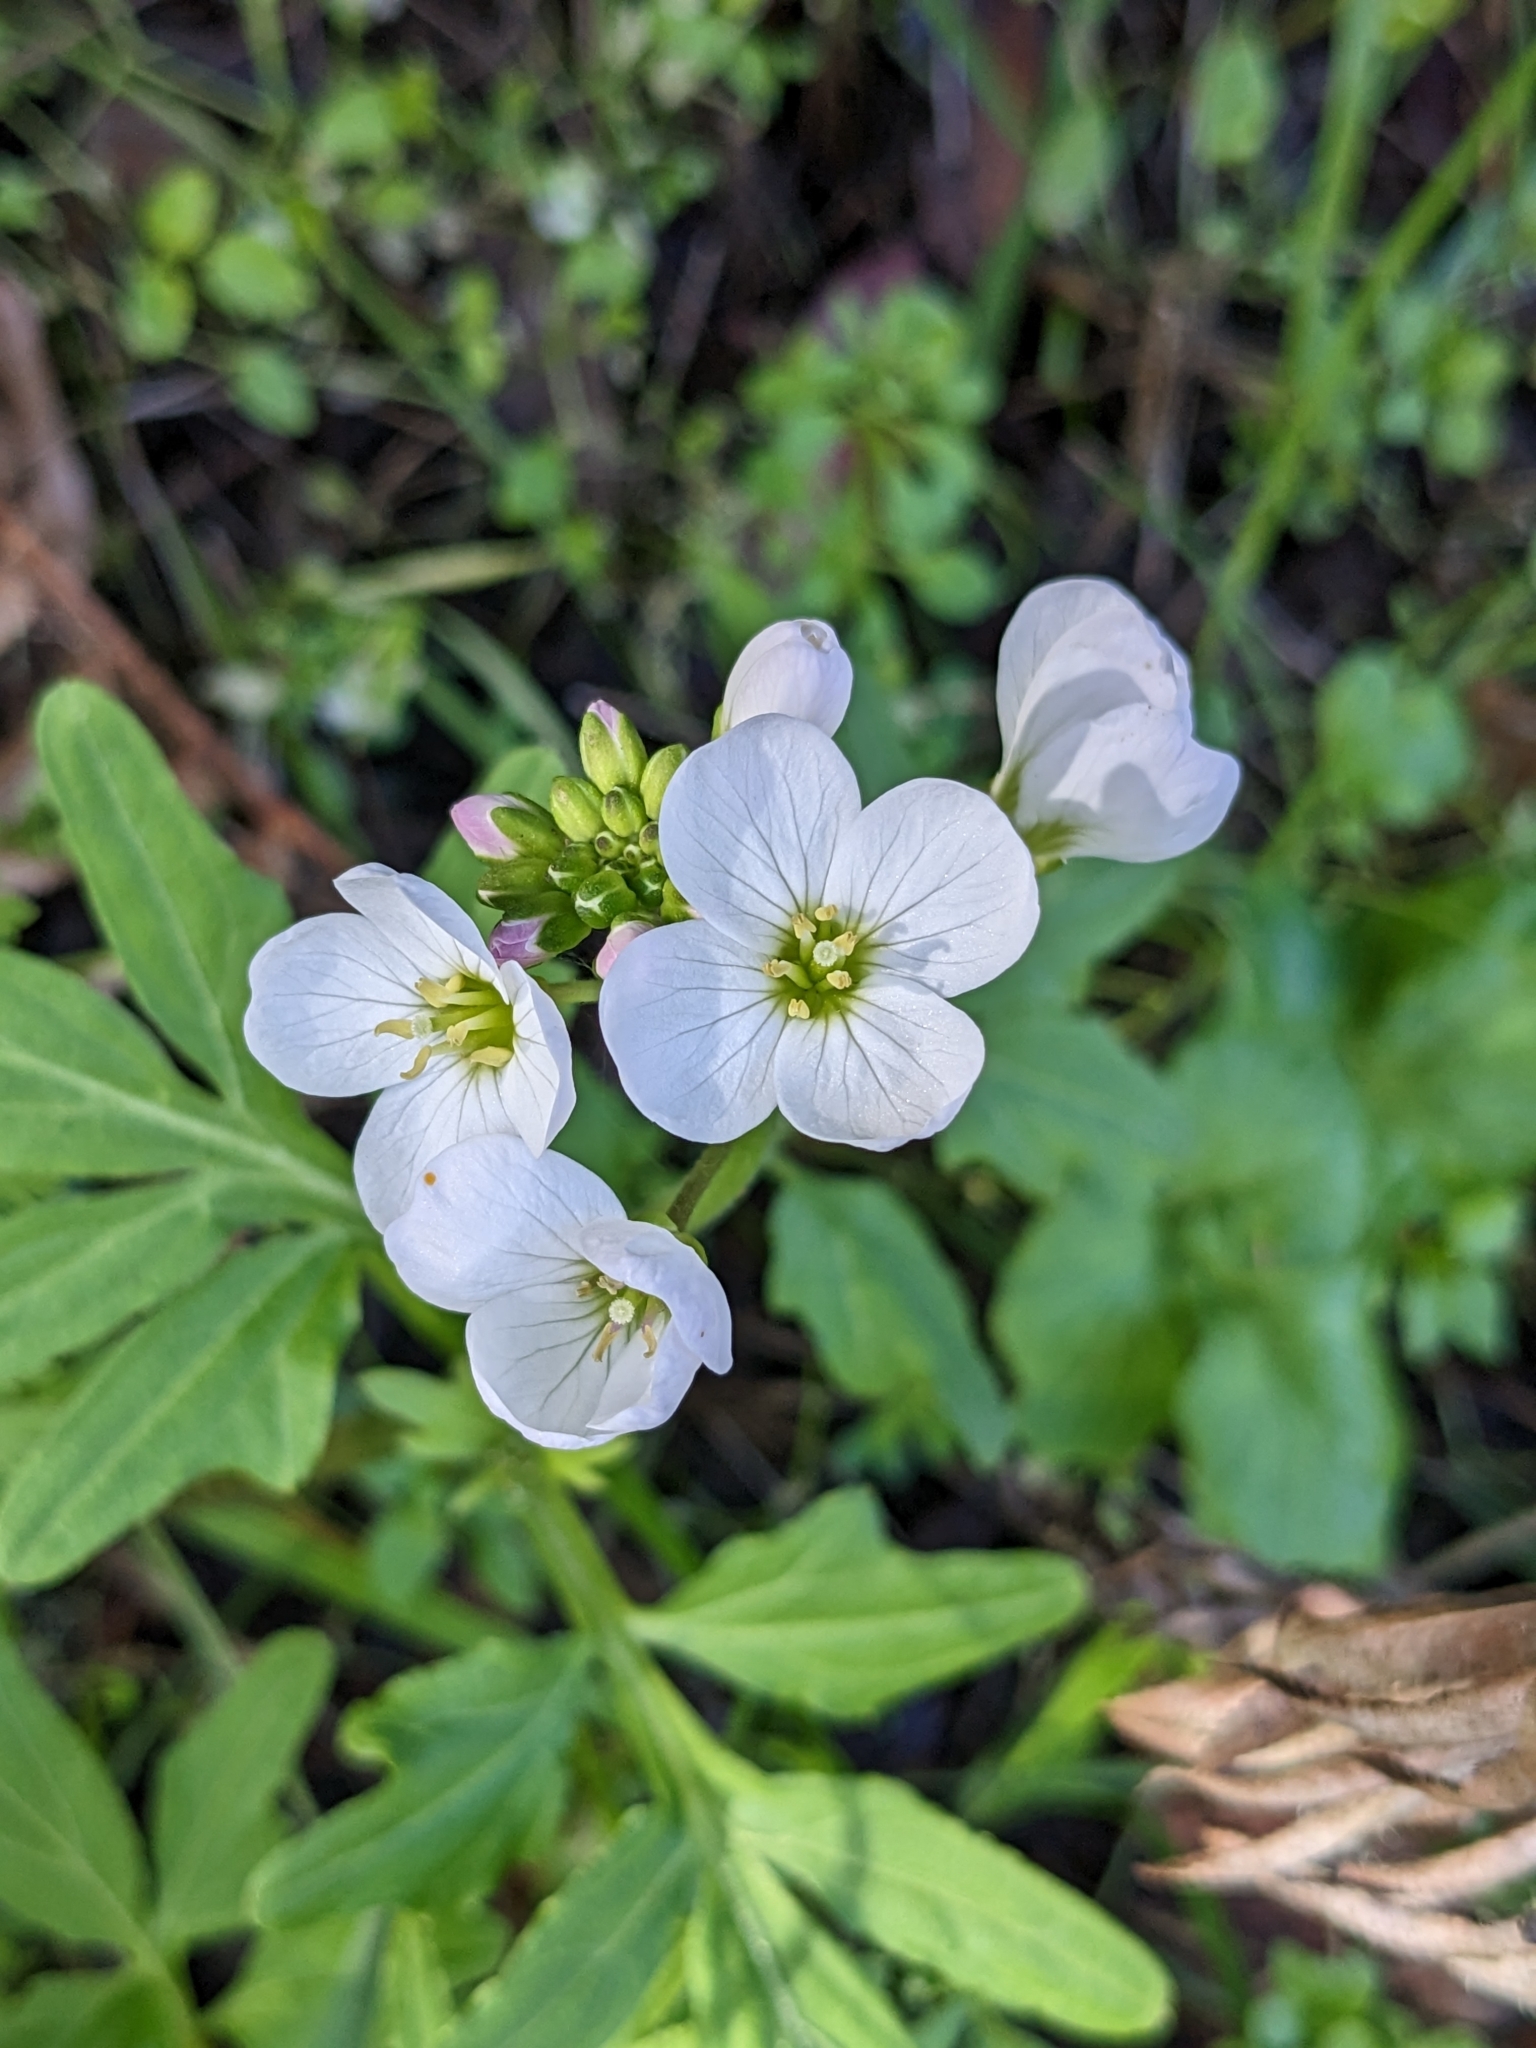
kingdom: Plantae
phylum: Tracheophyta
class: Magnoliopsida
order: Brassicales
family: Brassicaceae
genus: Cardamine
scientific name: Cardamine californica
